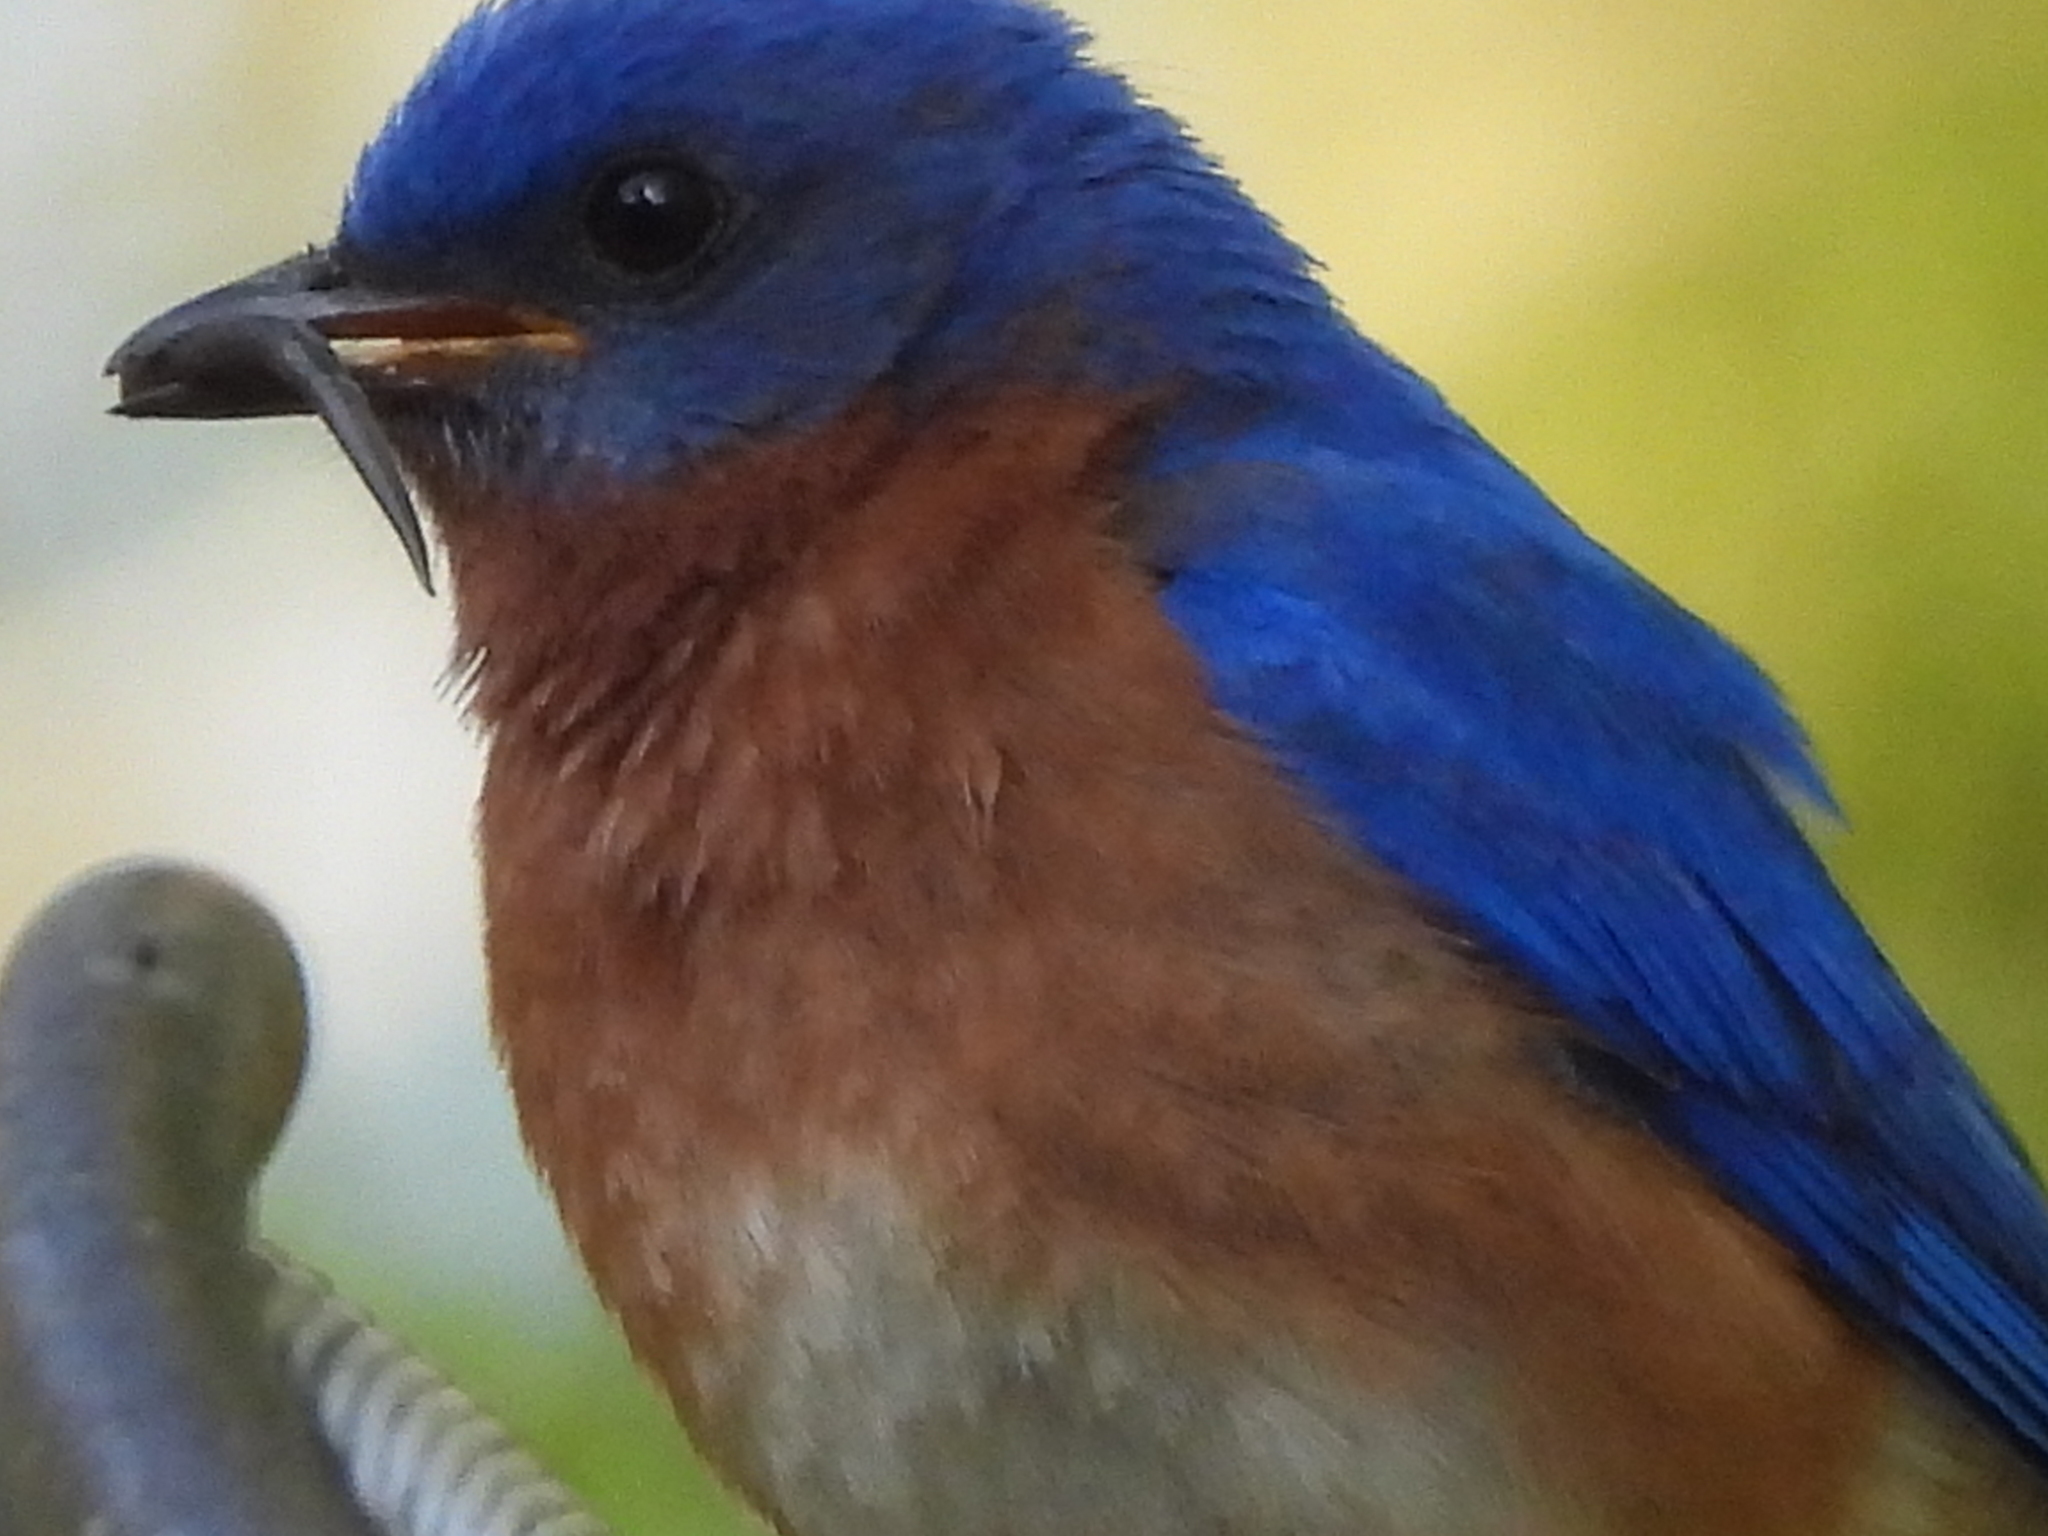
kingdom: Animalia
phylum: Chordata
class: Squamata
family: Scincidae
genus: Scincella
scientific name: Scincella lateralis
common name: Ground skink
